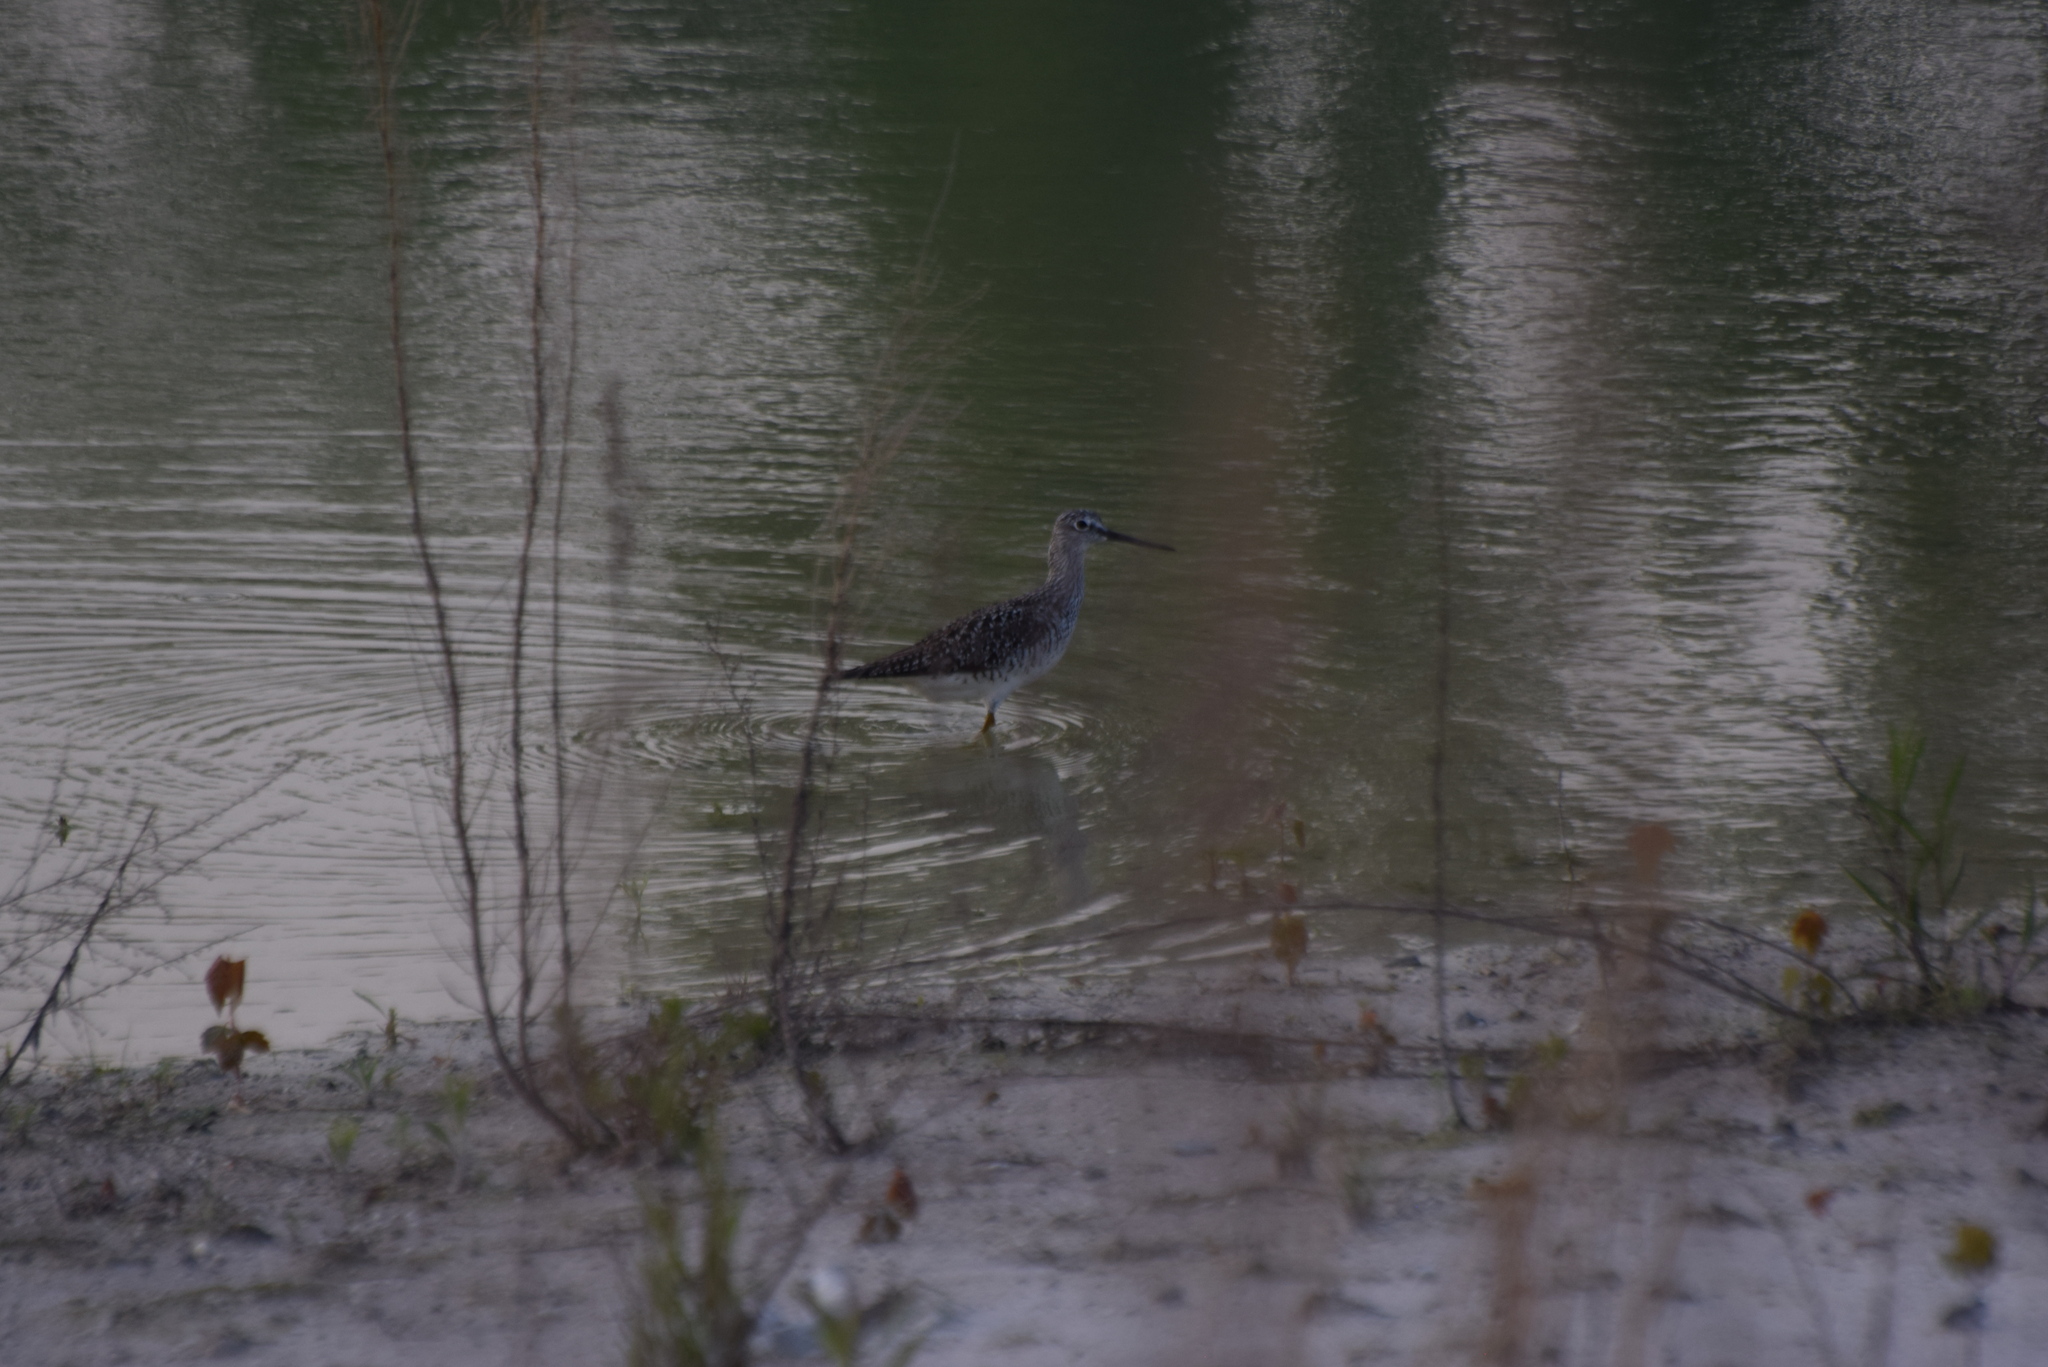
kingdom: Animalia
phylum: Chordata
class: Aves
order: Charadriiformes
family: Scolopacidae
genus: Tringa
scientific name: Tringa melanoleuca
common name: Greater yellowlegs
